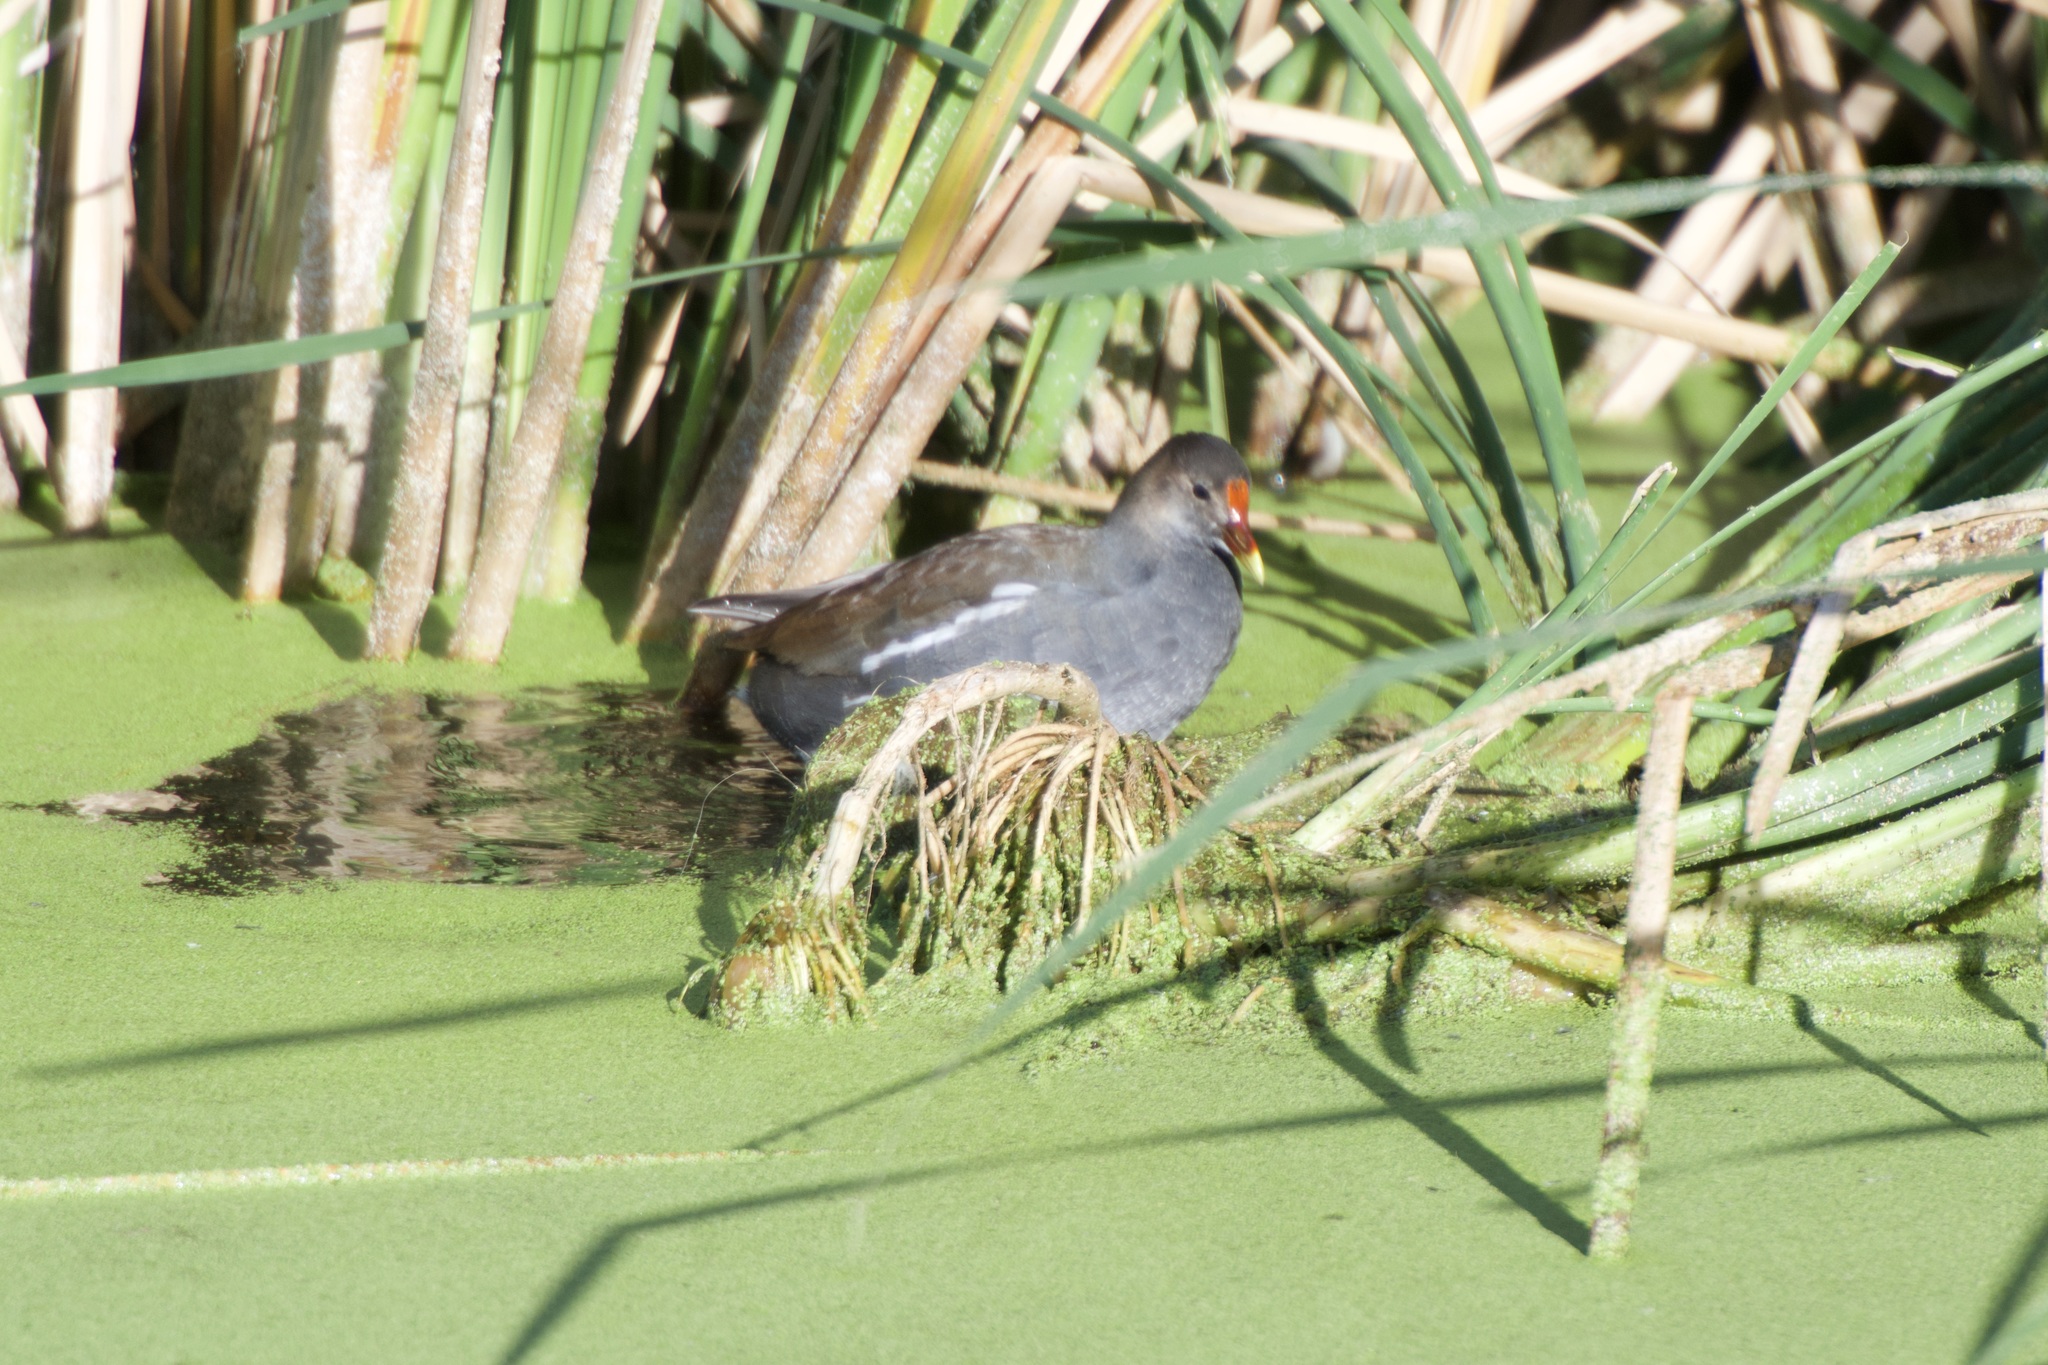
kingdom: Animalia
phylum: Chordata
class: Aves
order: Gruiformes
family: Rallidae
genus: Gallinula
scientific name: Gallinula chloropus
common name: Common moorhen
